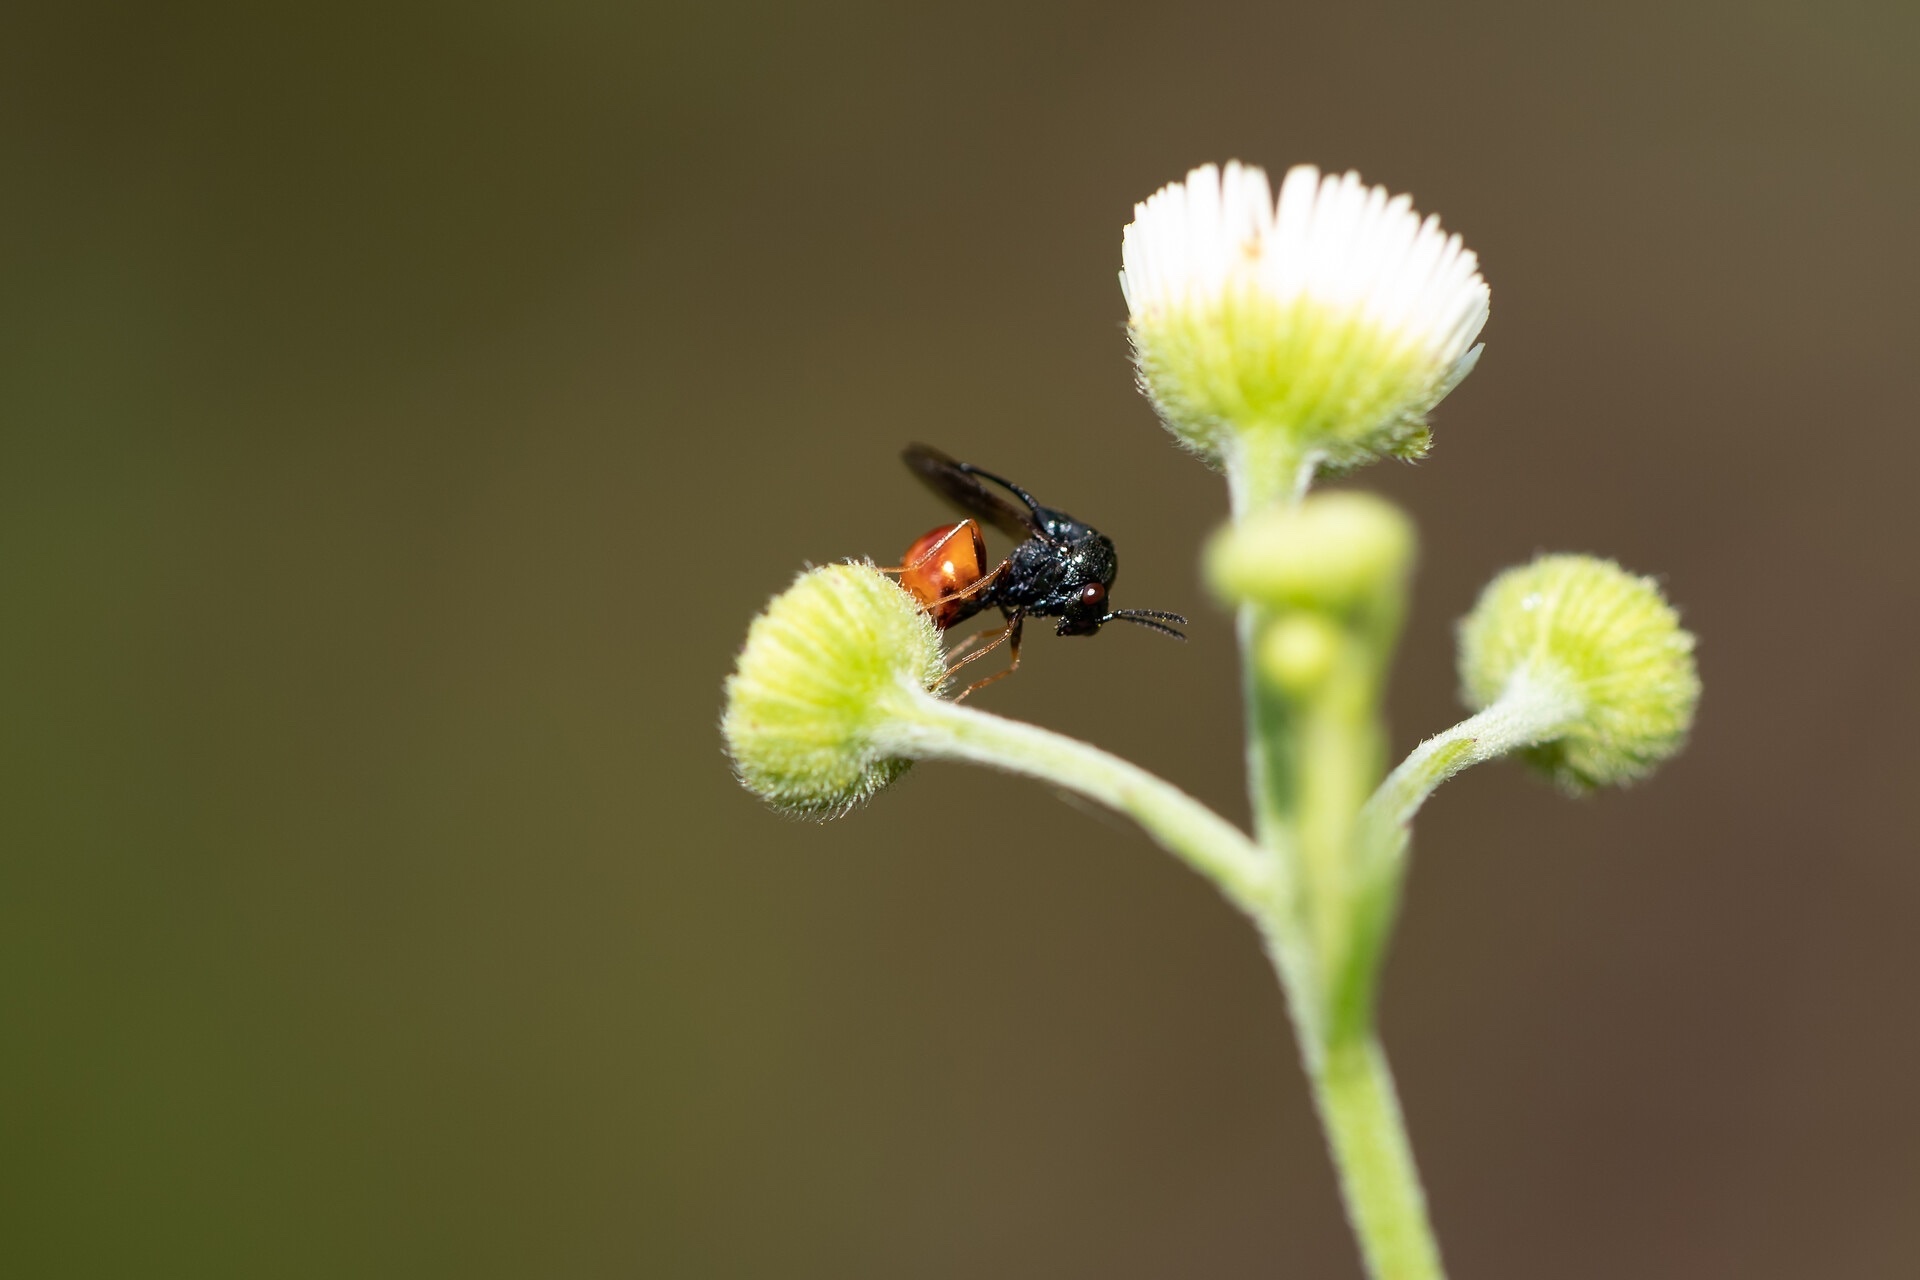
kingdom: Animalia
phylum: Arthropoda
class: Insecta
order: Hymenoptera
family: Eucharitidae
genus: Kapala
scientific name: Kapala floridana
